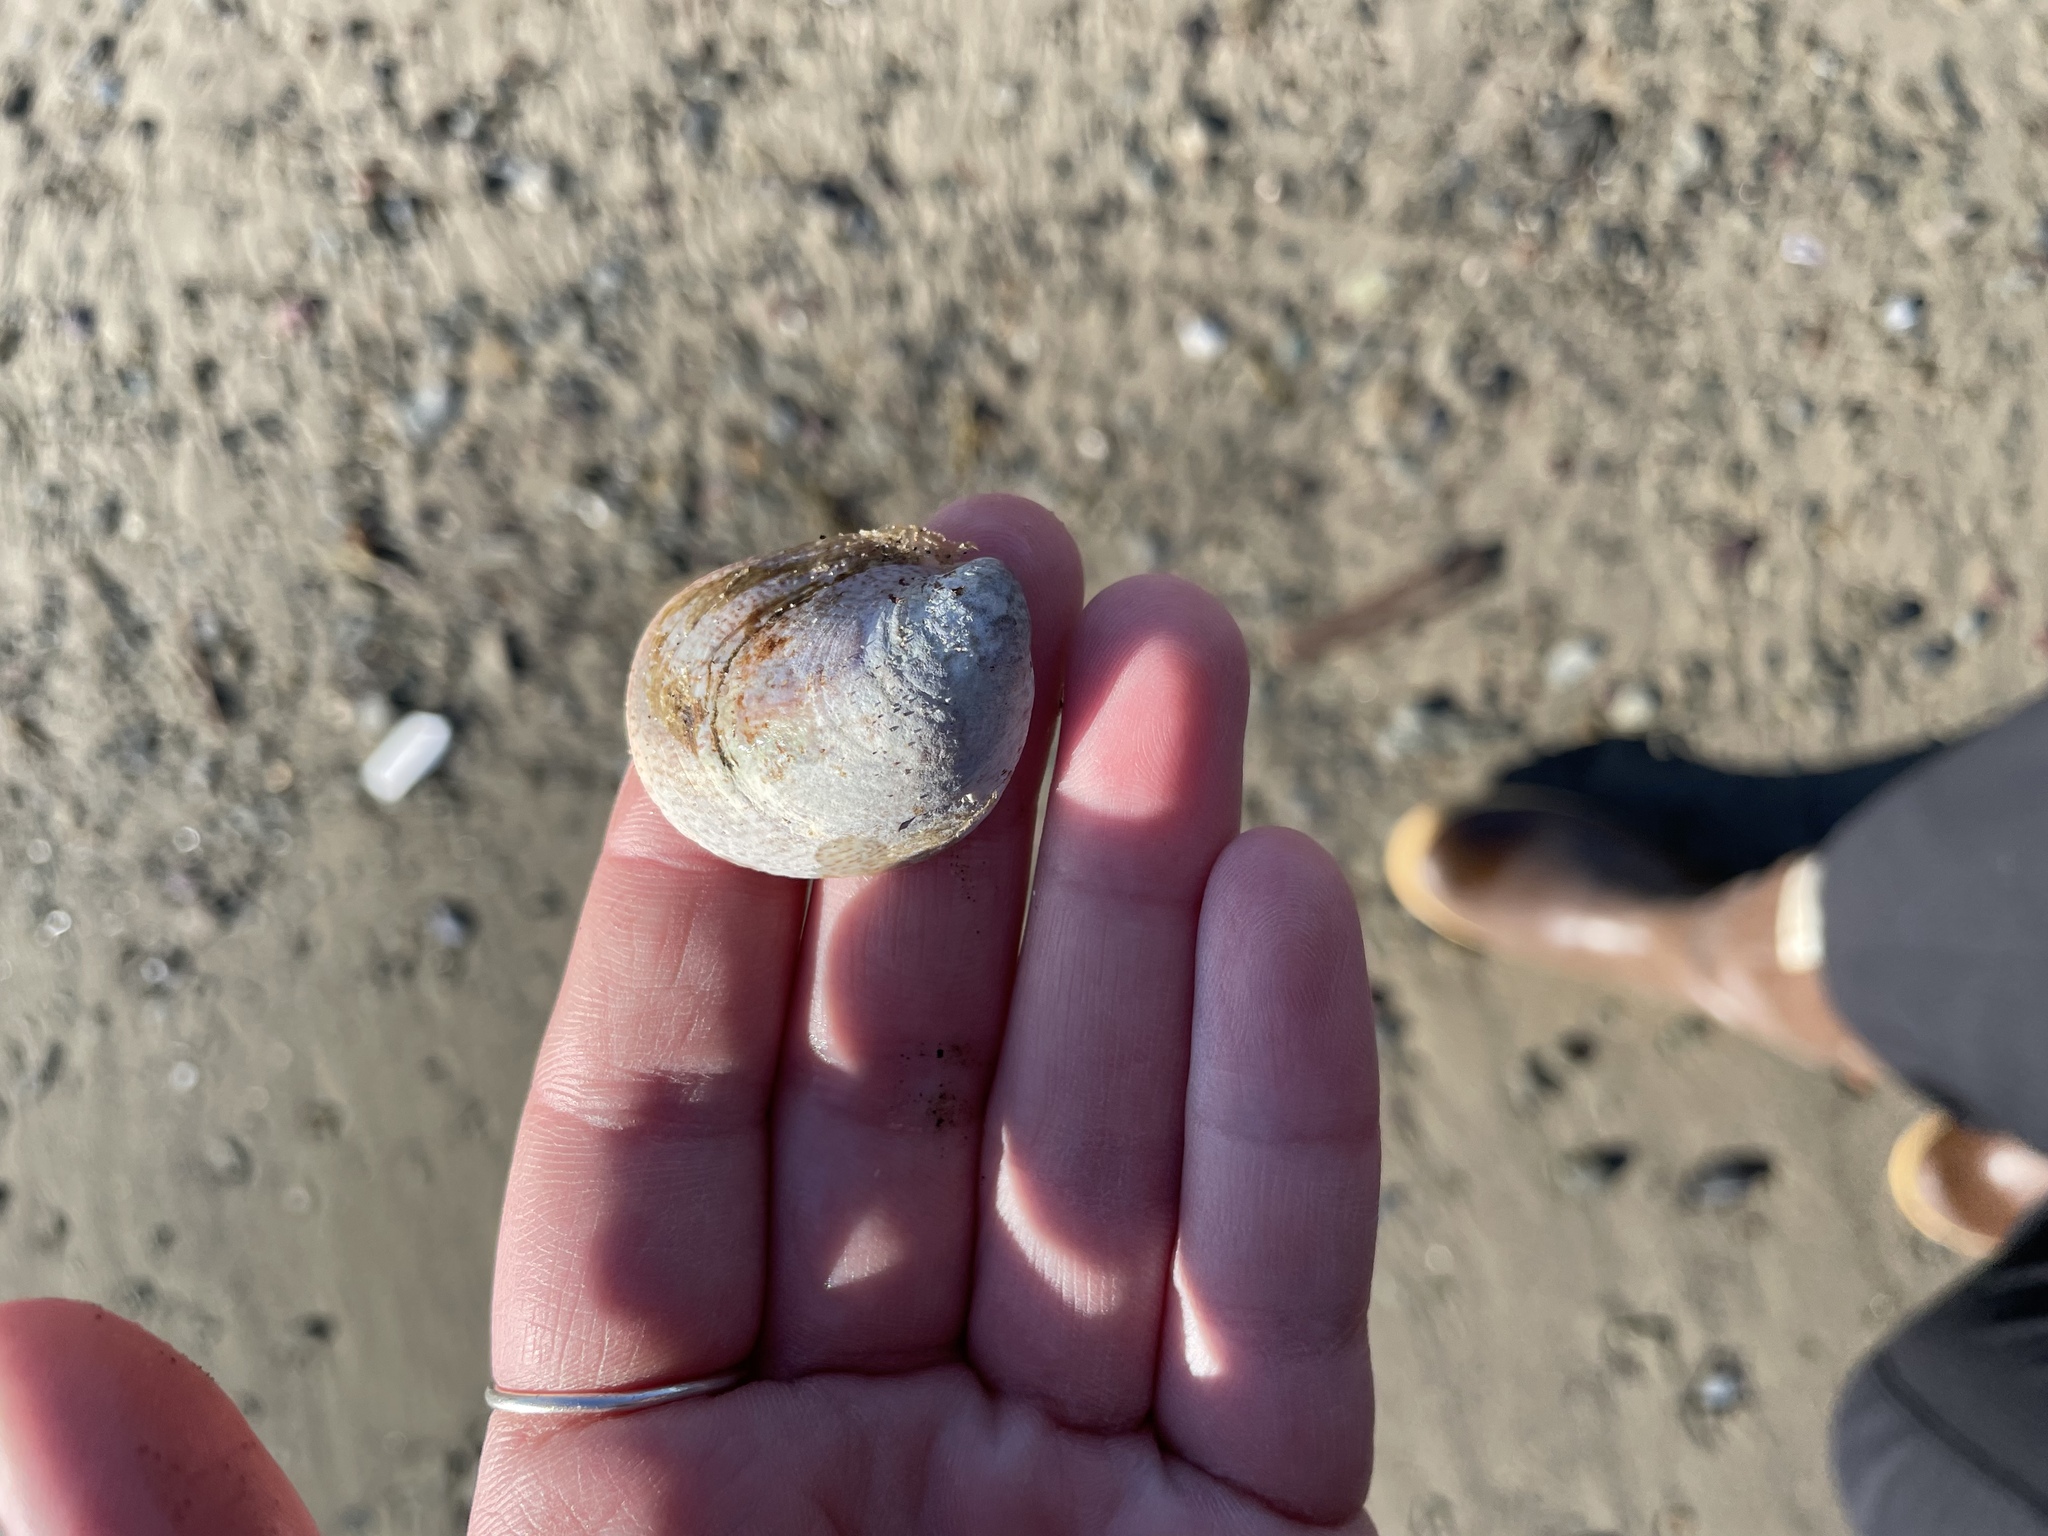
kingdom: Animalia
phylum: Mollusca
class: Gastropoda
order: Littorinimorpha
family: Calyptraeidae
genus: Crepidula
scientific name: Crepidula fornicata
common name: Slipper limpet
